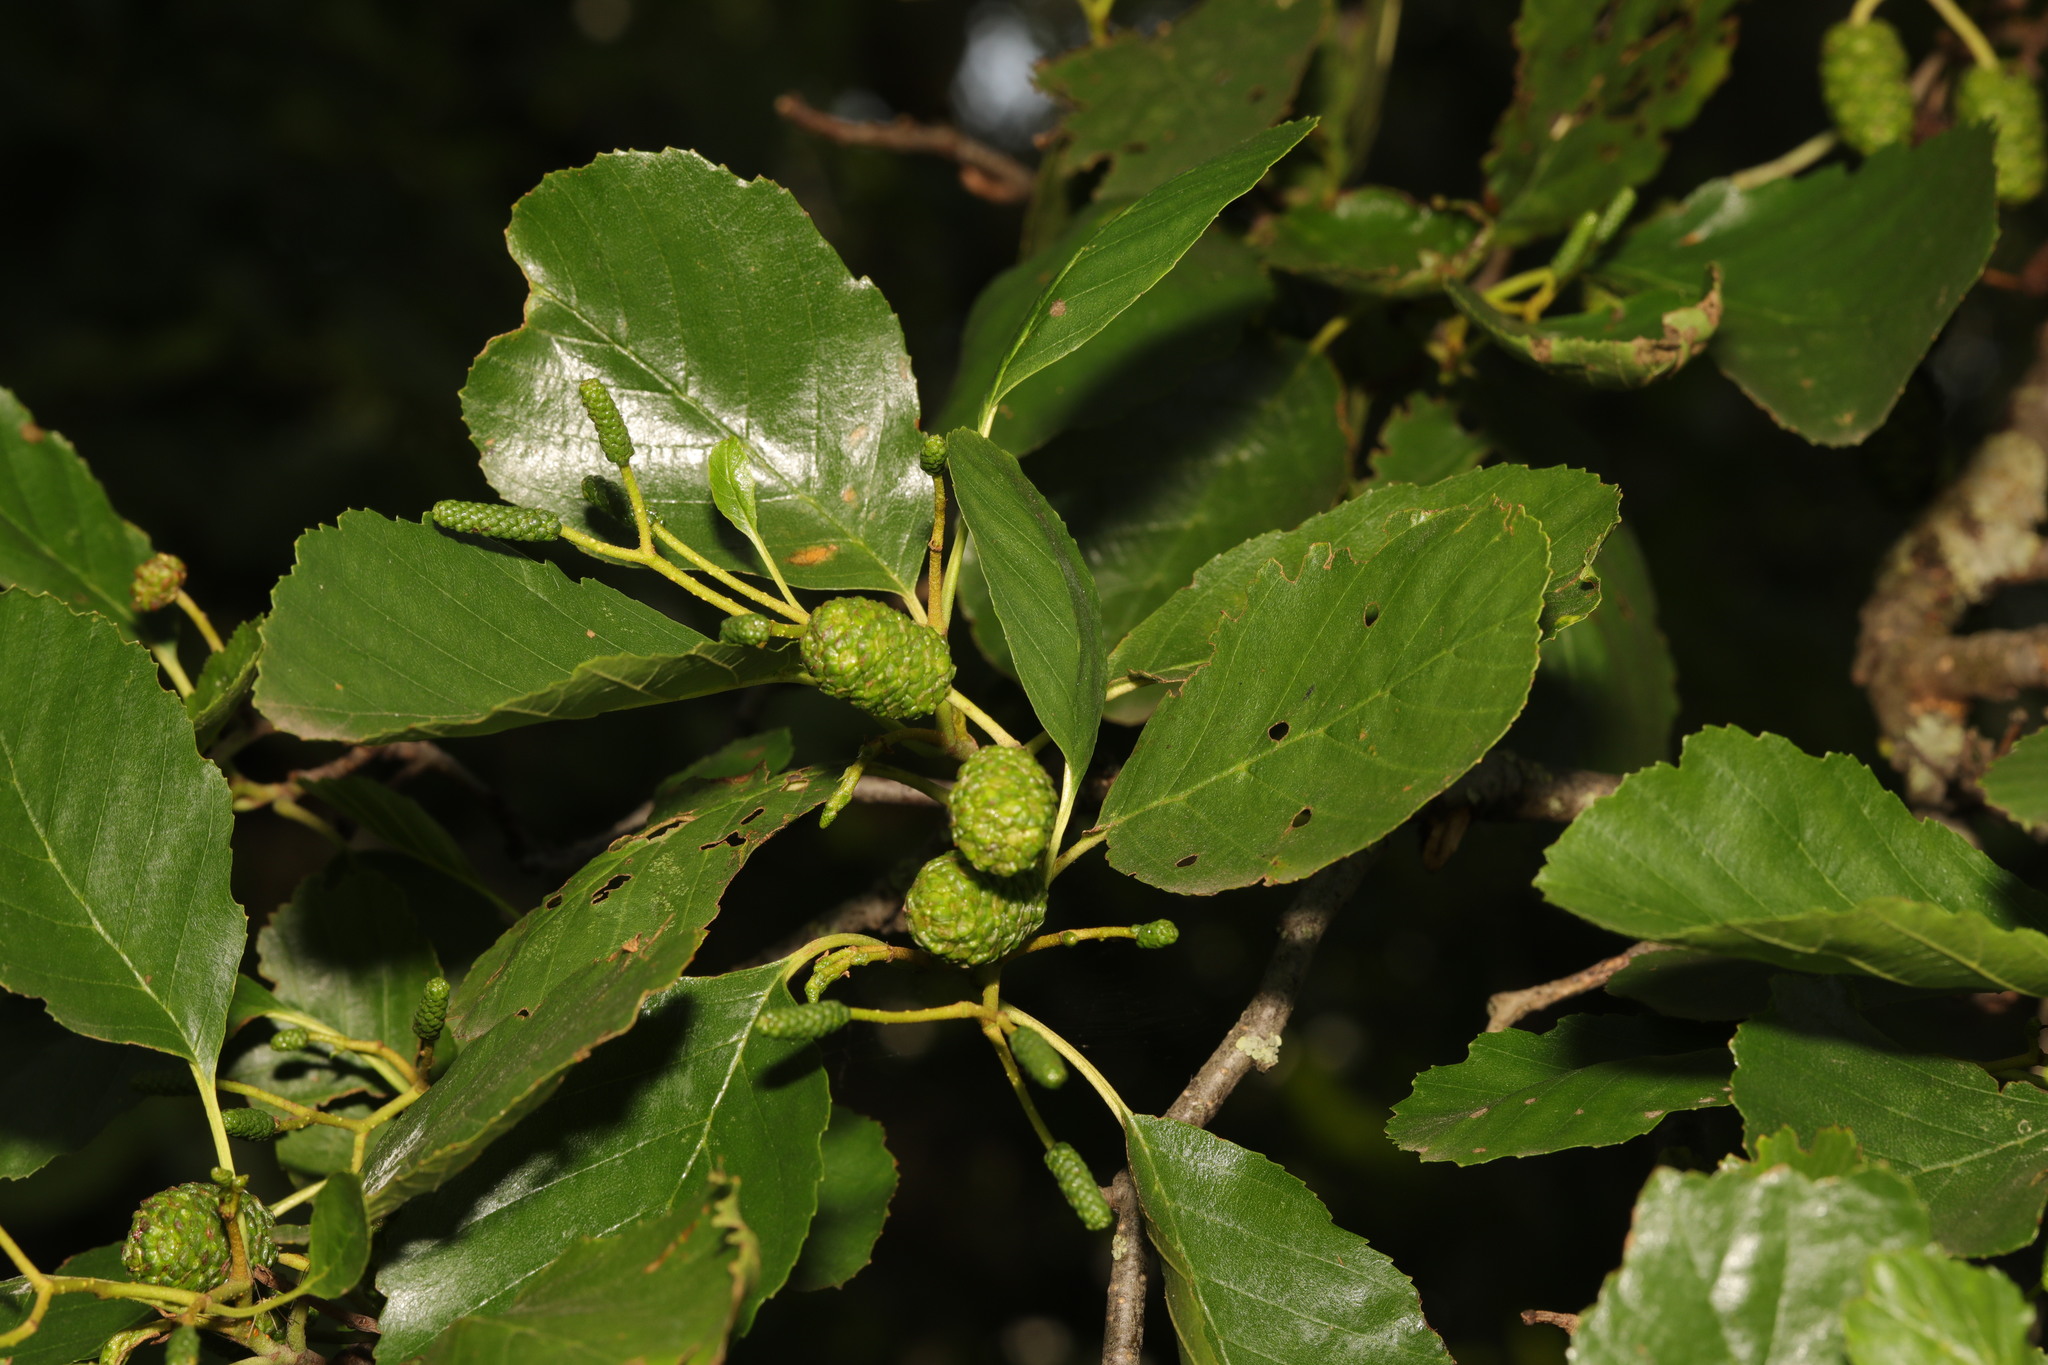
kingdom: Plantae
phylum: Tracheophyta
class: Magnoliopsida
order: Fagales
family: Betulaceae
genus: Alnus
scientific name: Alnus glutinosa
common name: Black alder
